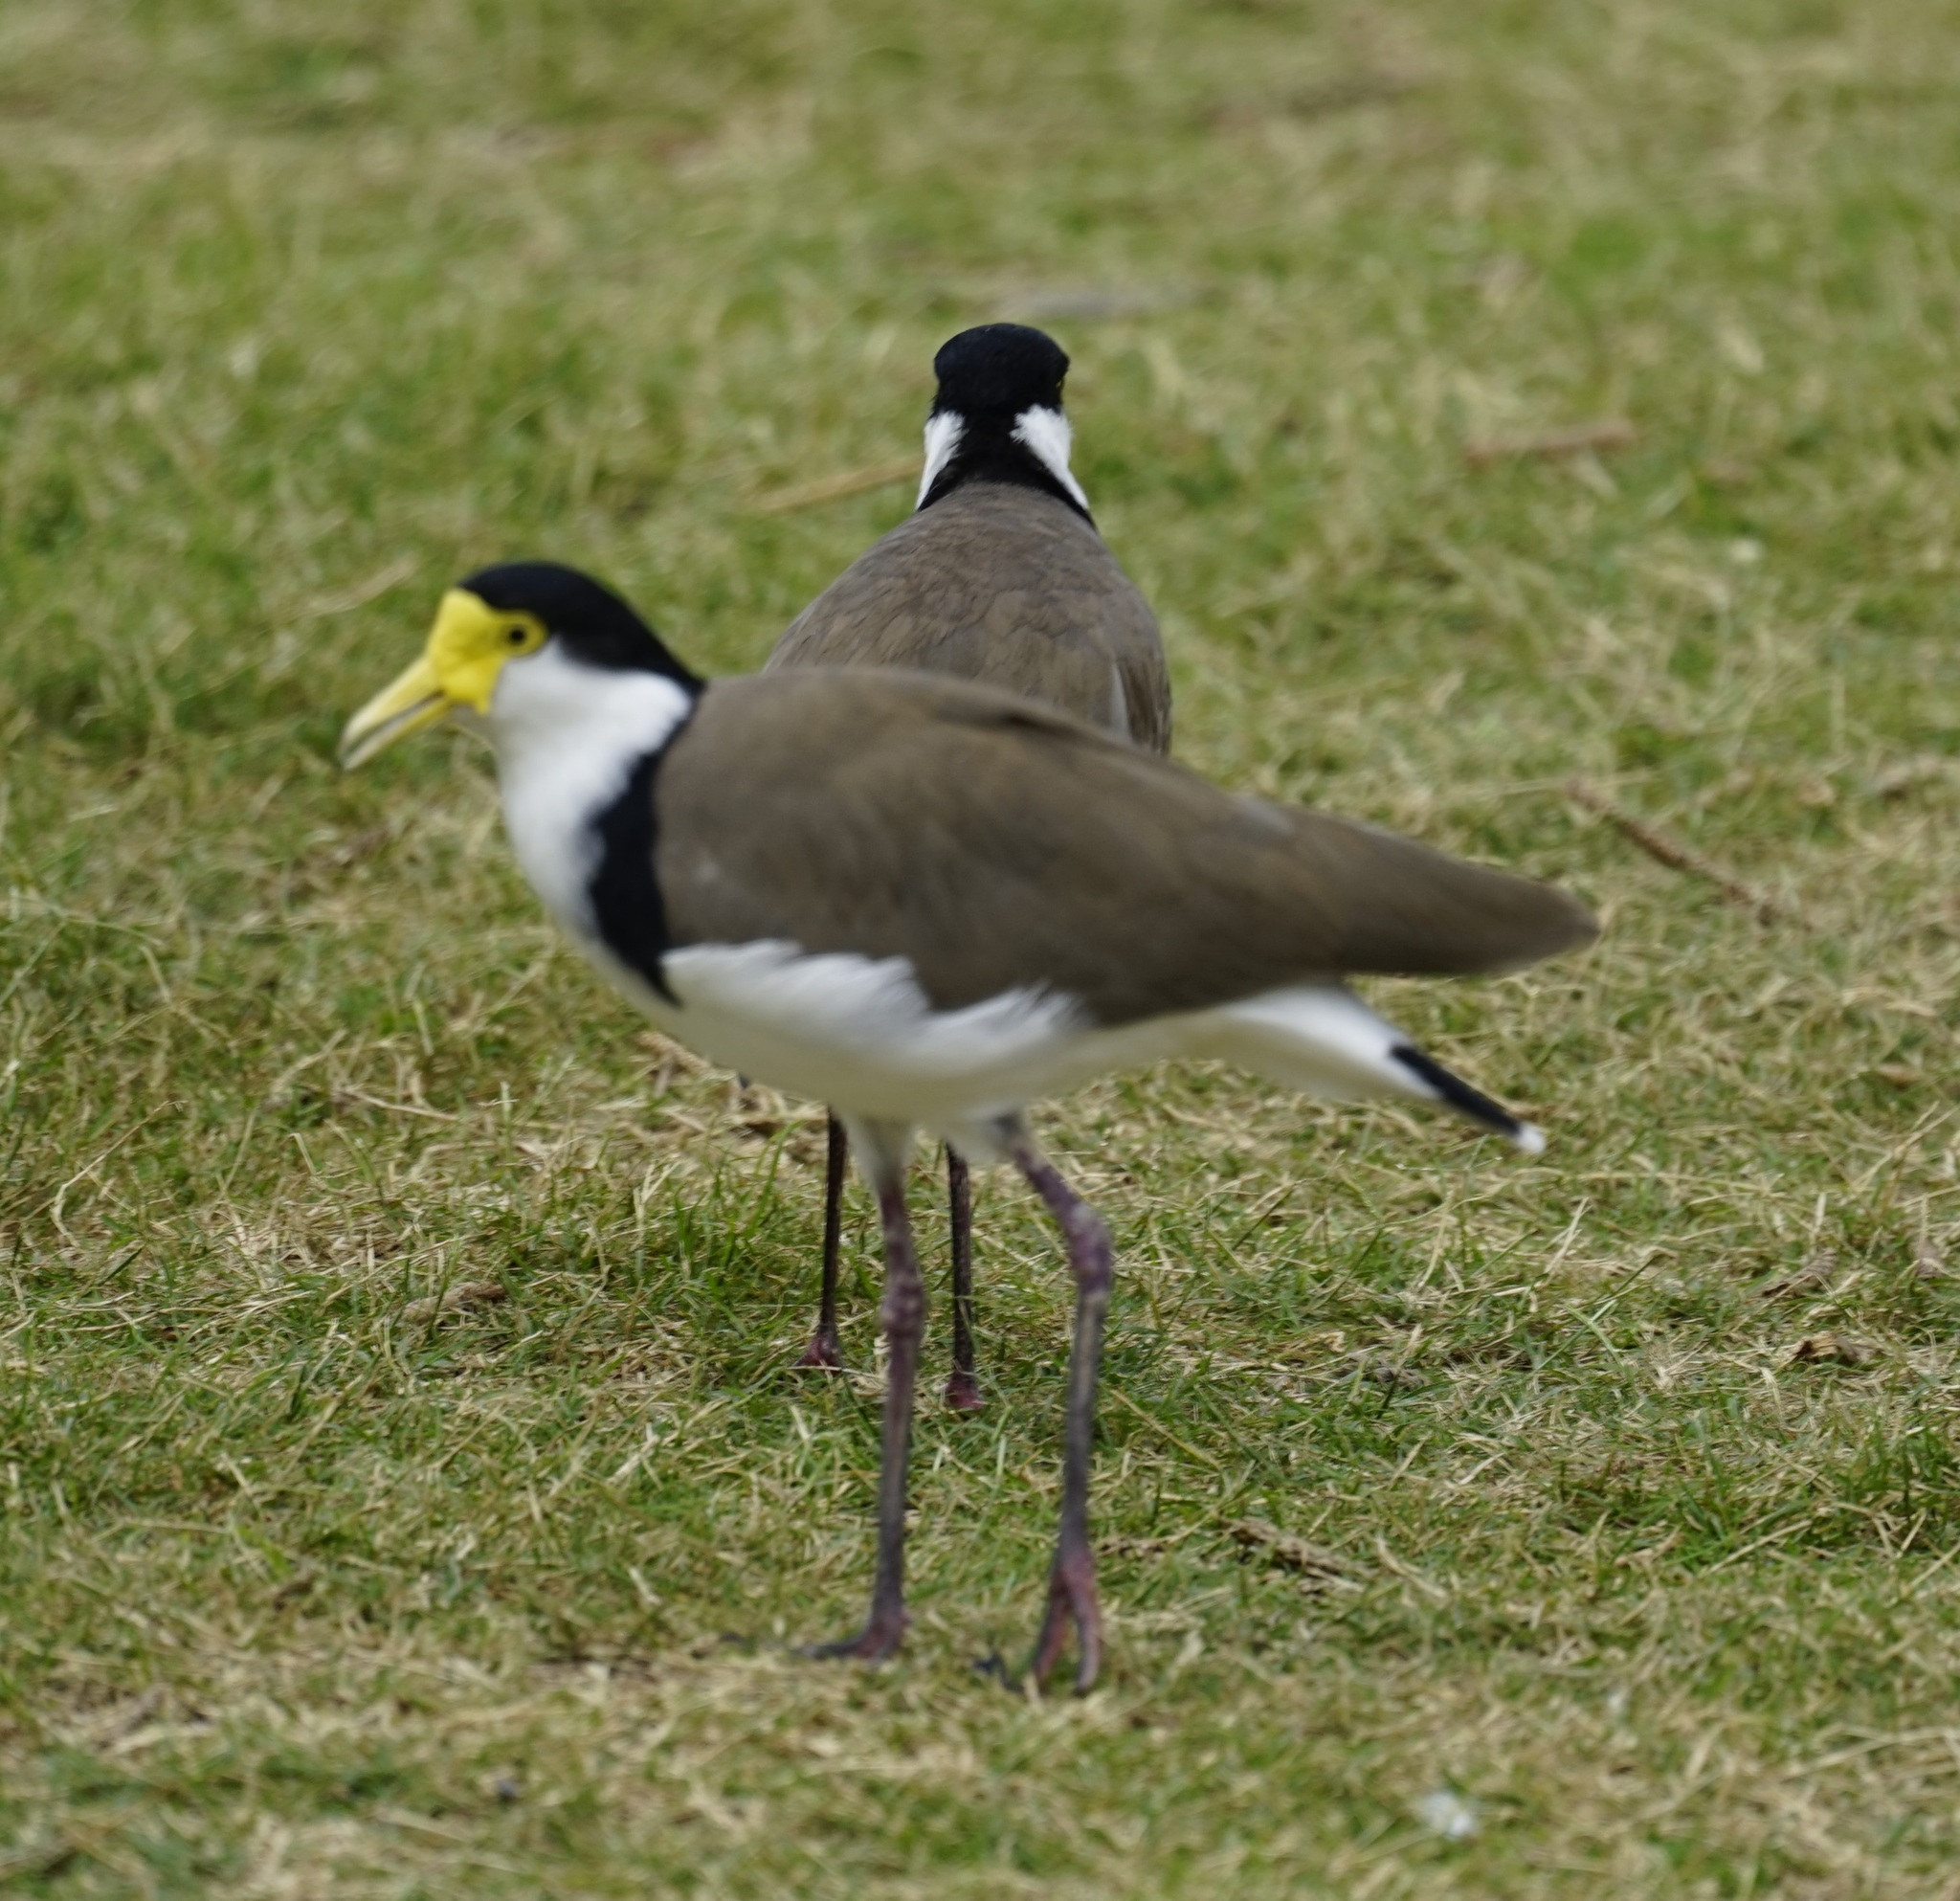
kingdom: Animalia
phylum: Chordata
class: Aves
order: Charadriiformes
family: Charadriidae
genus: Vanellus
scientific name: Vanellus miles
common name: Masked lapwing
